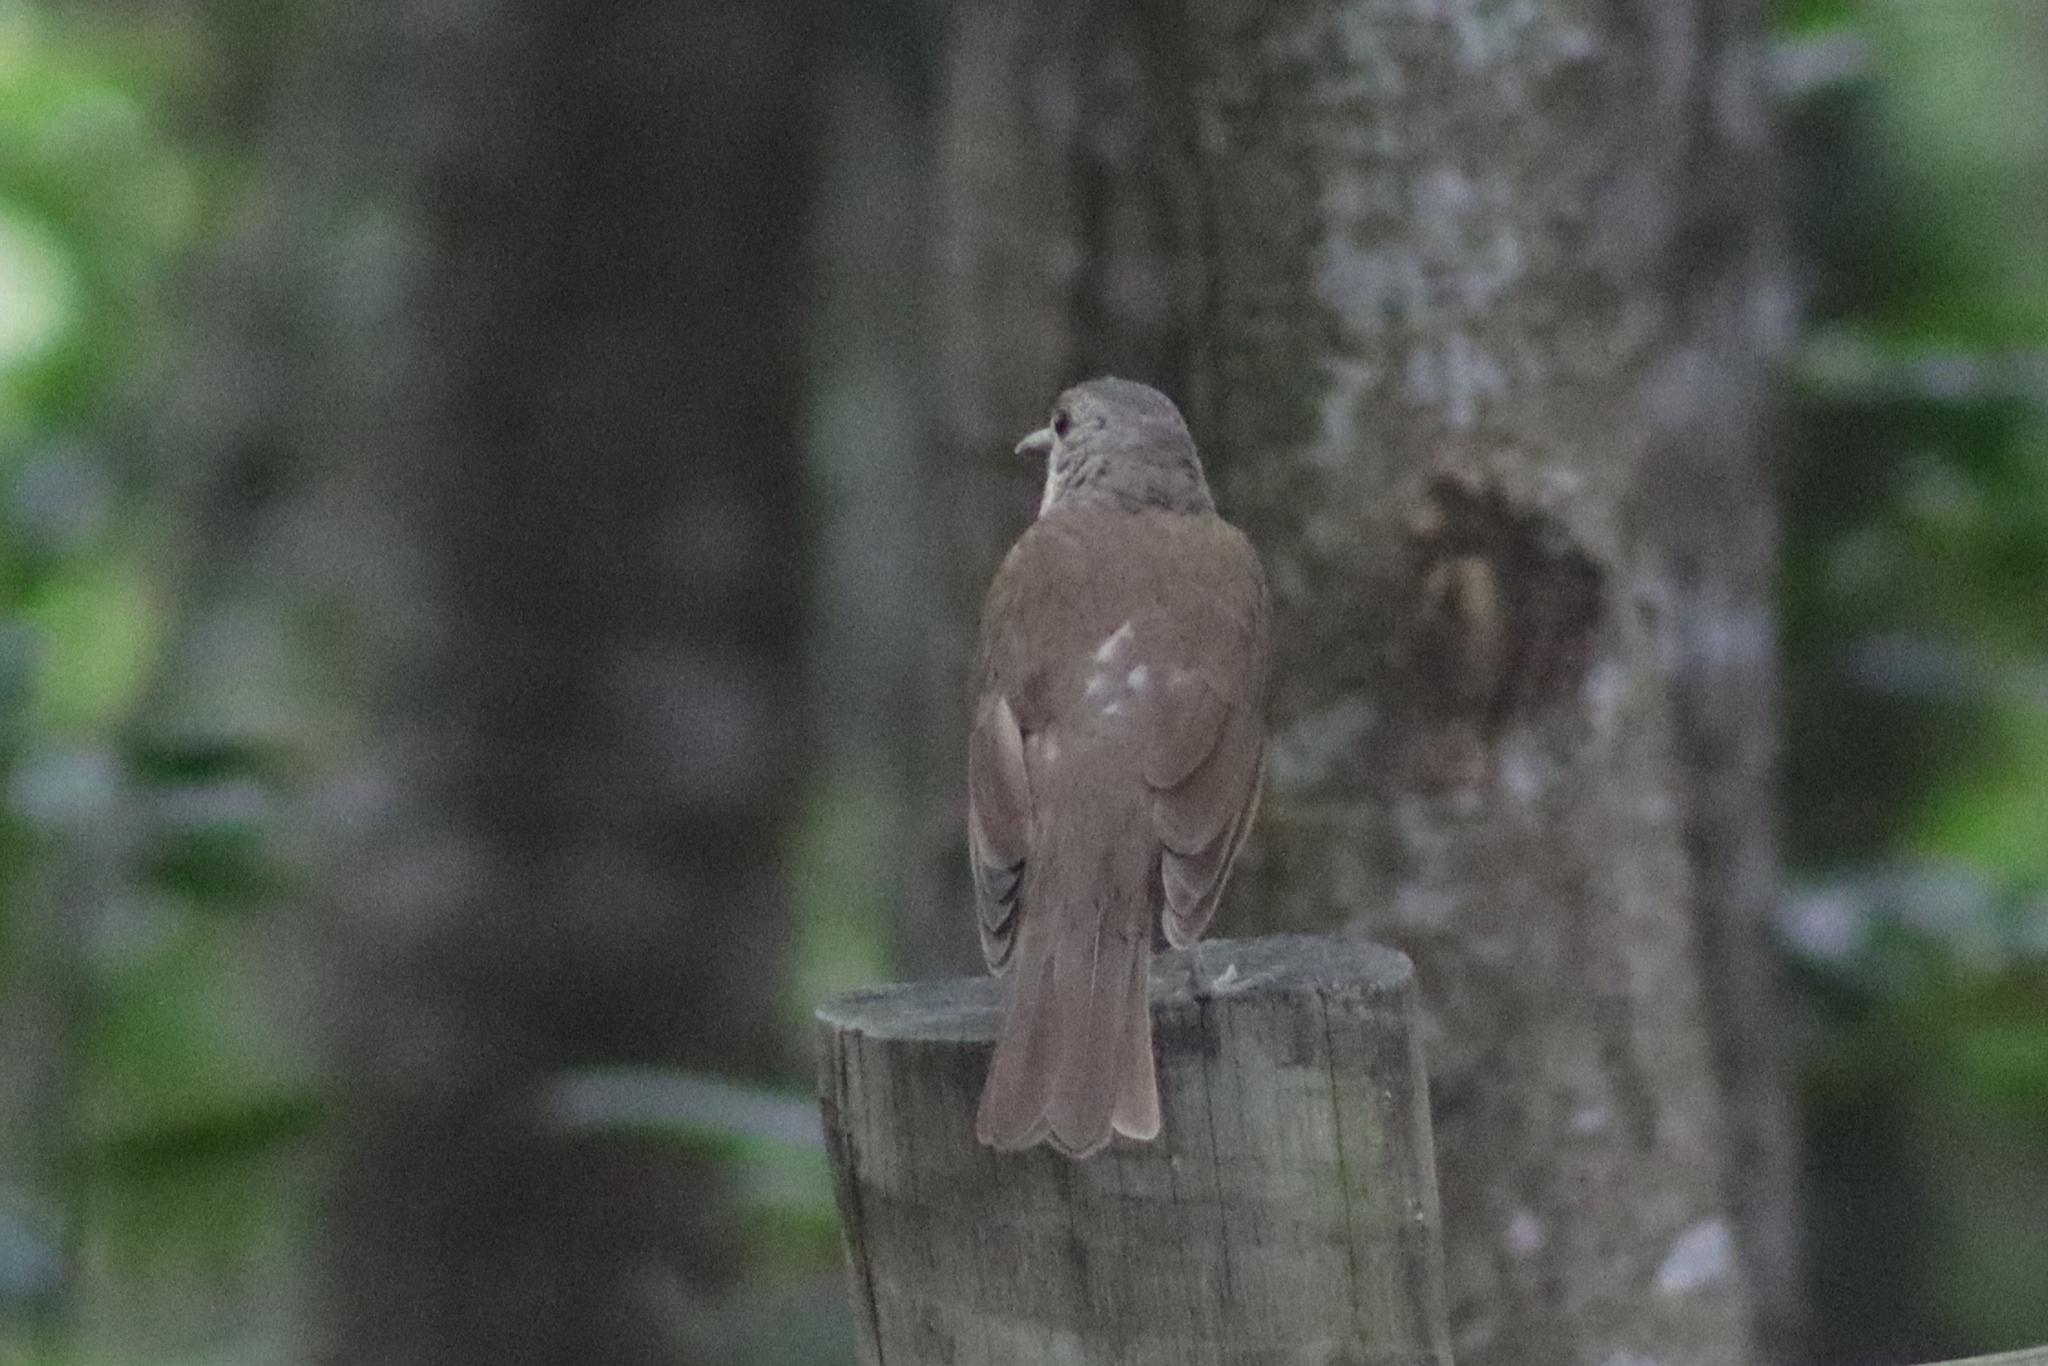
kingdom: Animalia
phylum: Chordata
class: Aves
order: Passeriformes
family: Turdidae
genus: Turdus
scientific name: Turdus leucomelas
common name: Pale-breasted thrush
